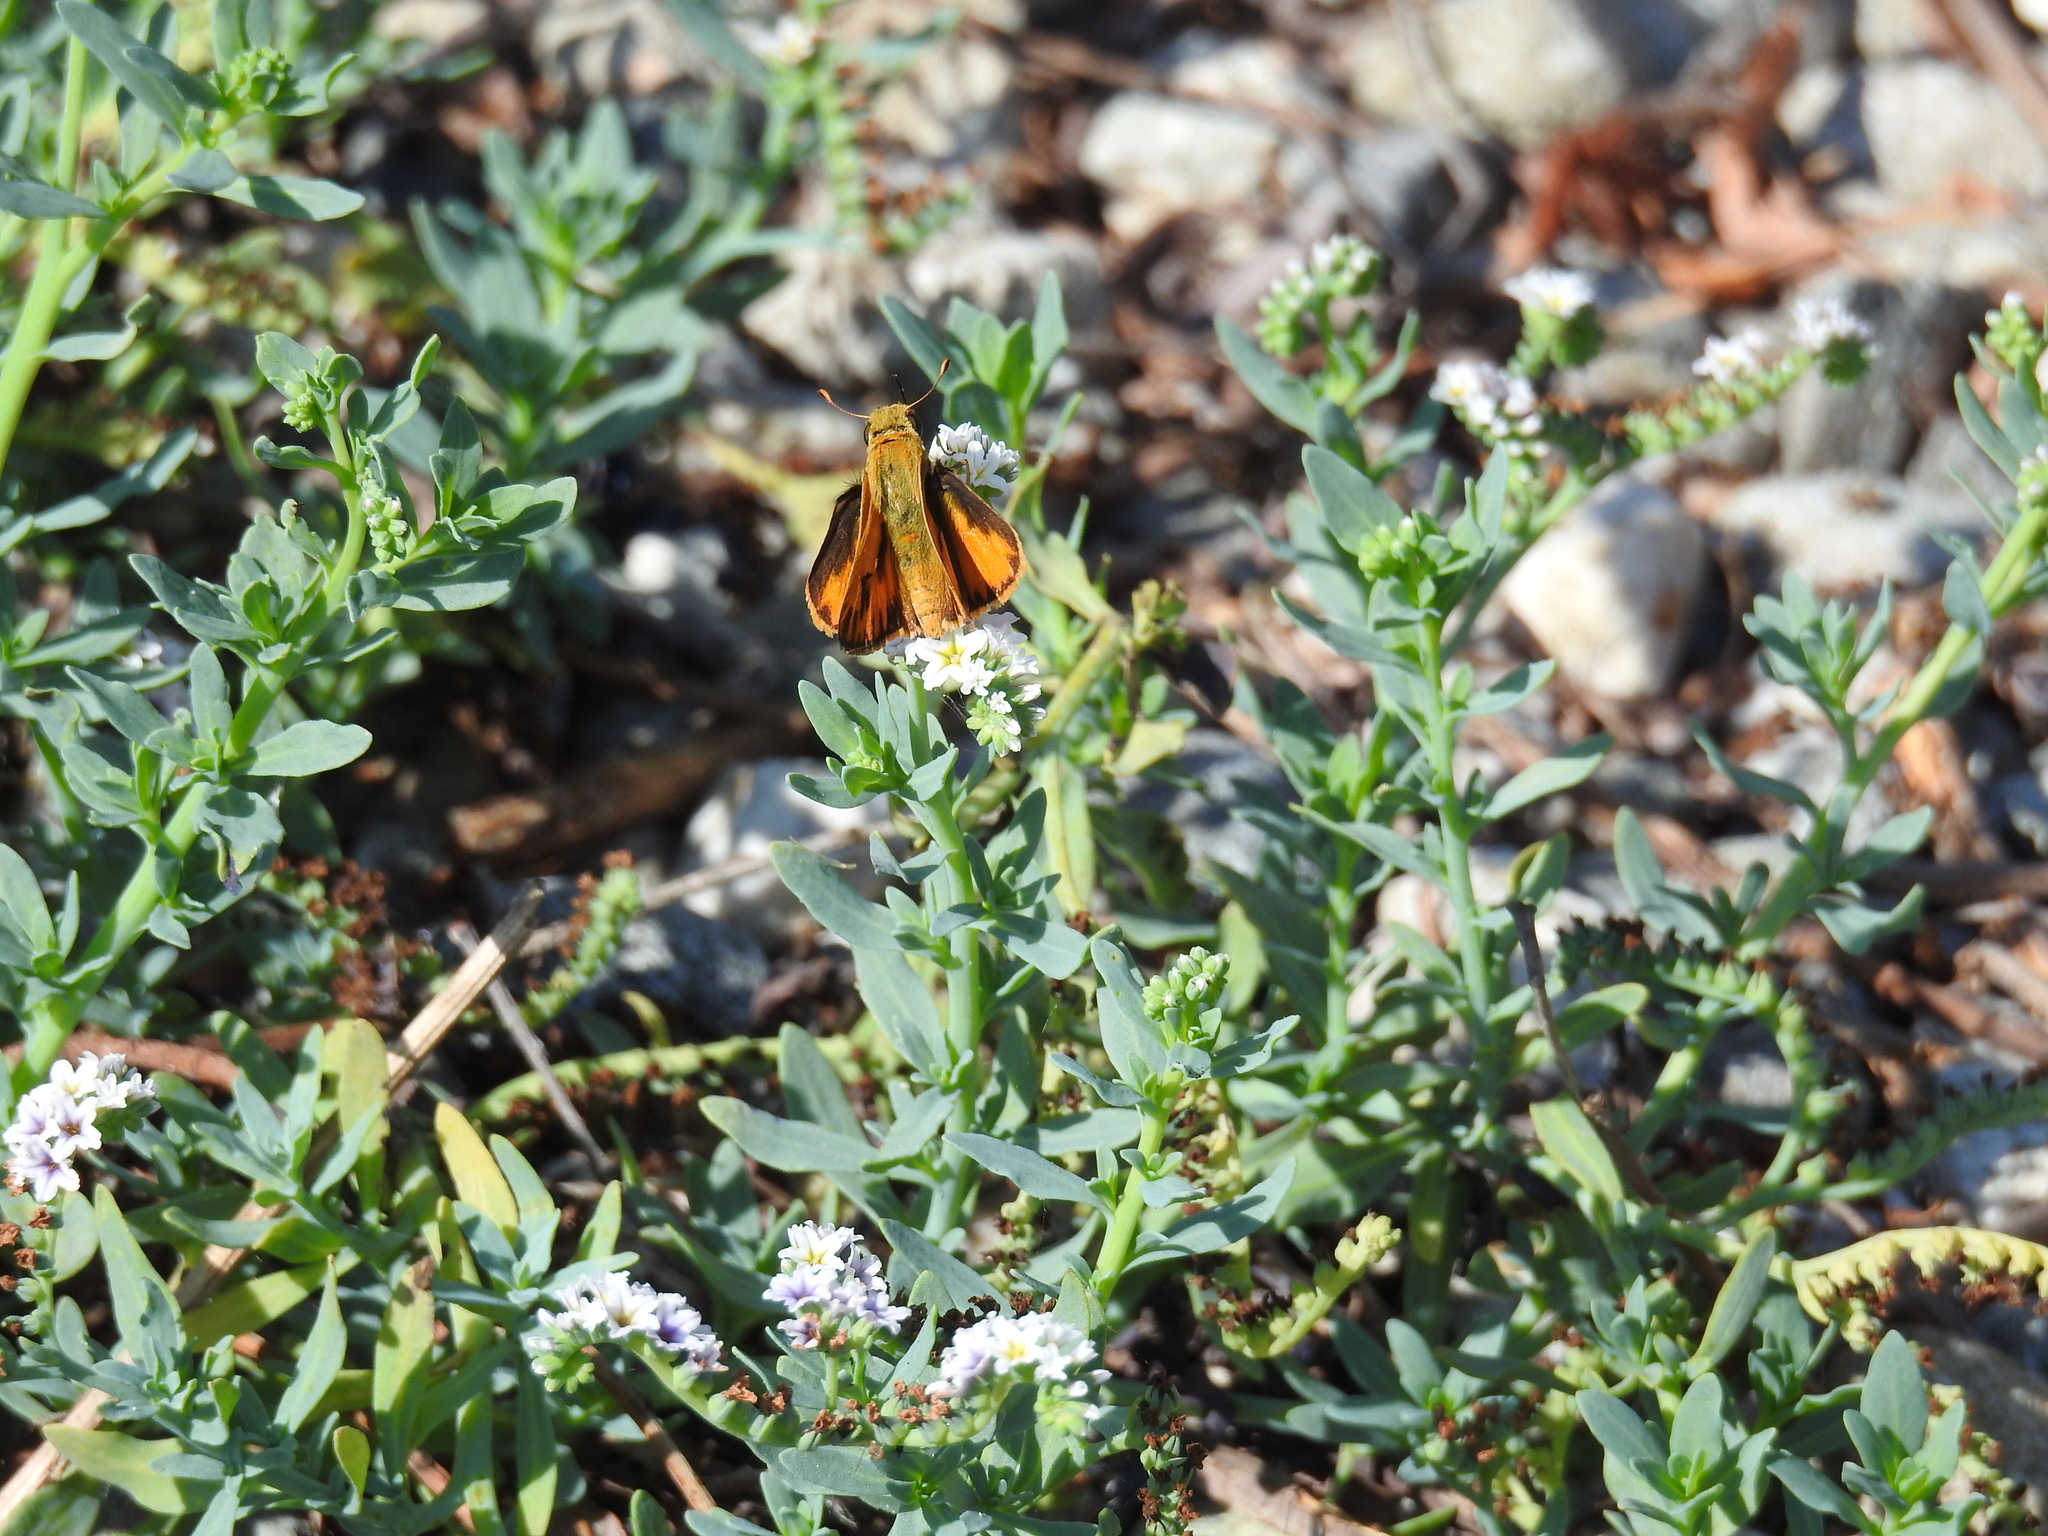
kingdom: Animalia
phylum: Arthropoda
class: Insecta
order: Lepidoptera
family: Hesperiidae
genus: Hylephila
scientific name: Hylephila phyleus
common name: Fiery skipper
